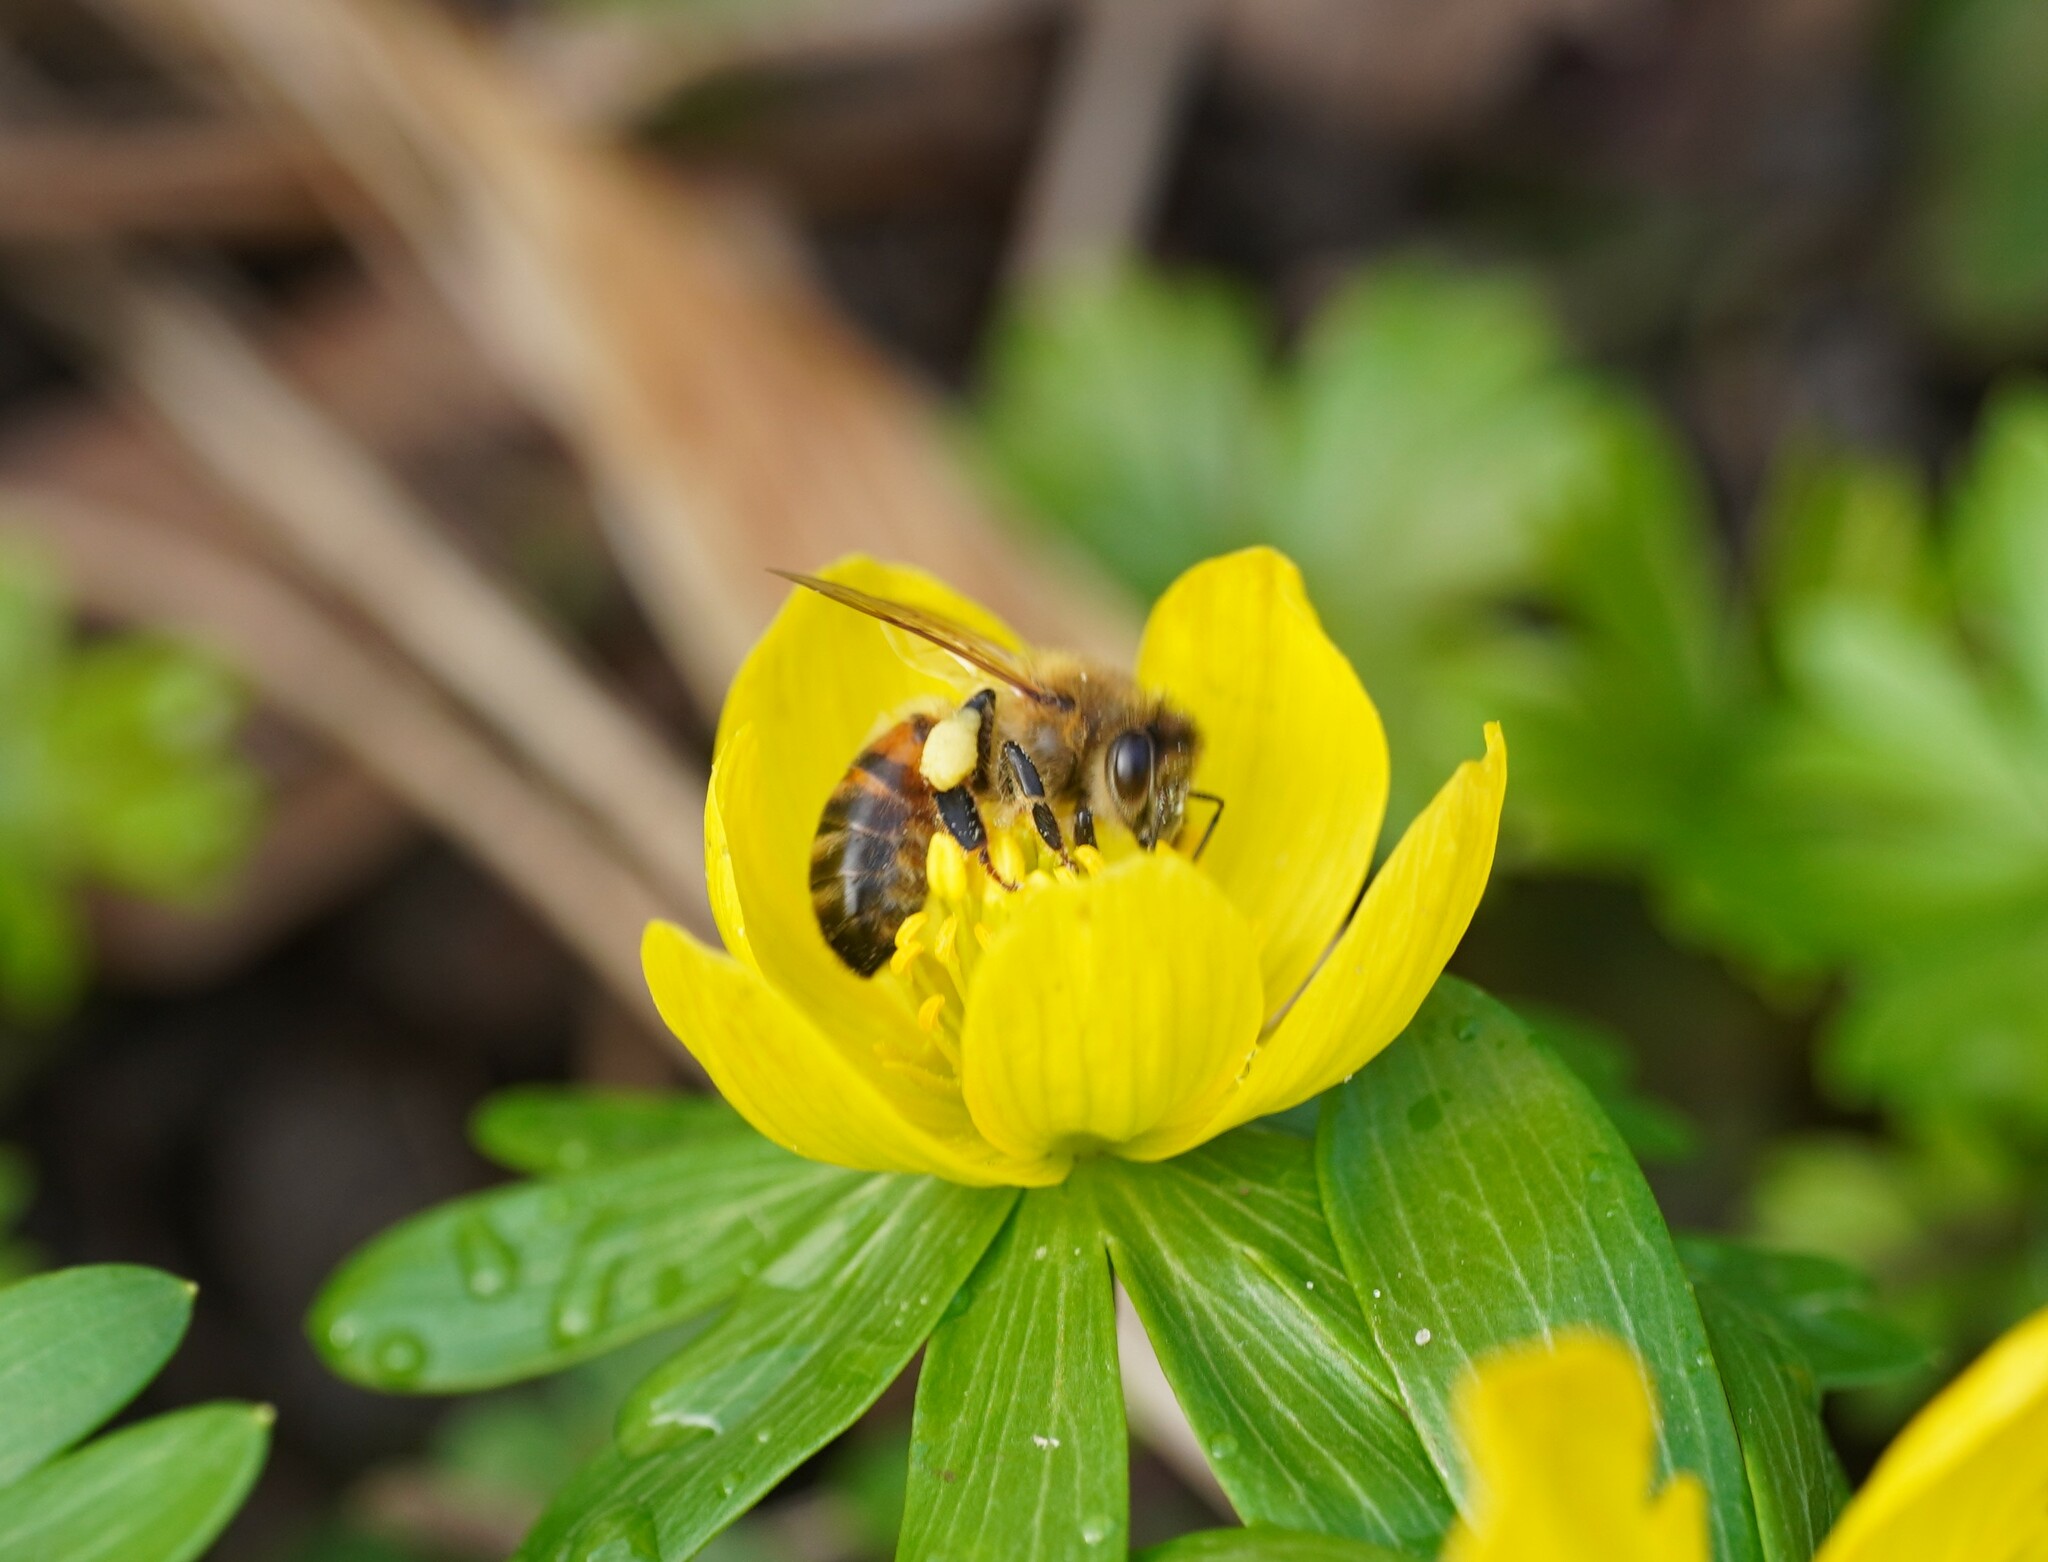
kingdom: Animalia
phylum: Arthropoda
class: Insecta
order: Hymenoptera
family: Apidae
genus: Apis
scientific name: Apis mellifera
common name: Honey bee
